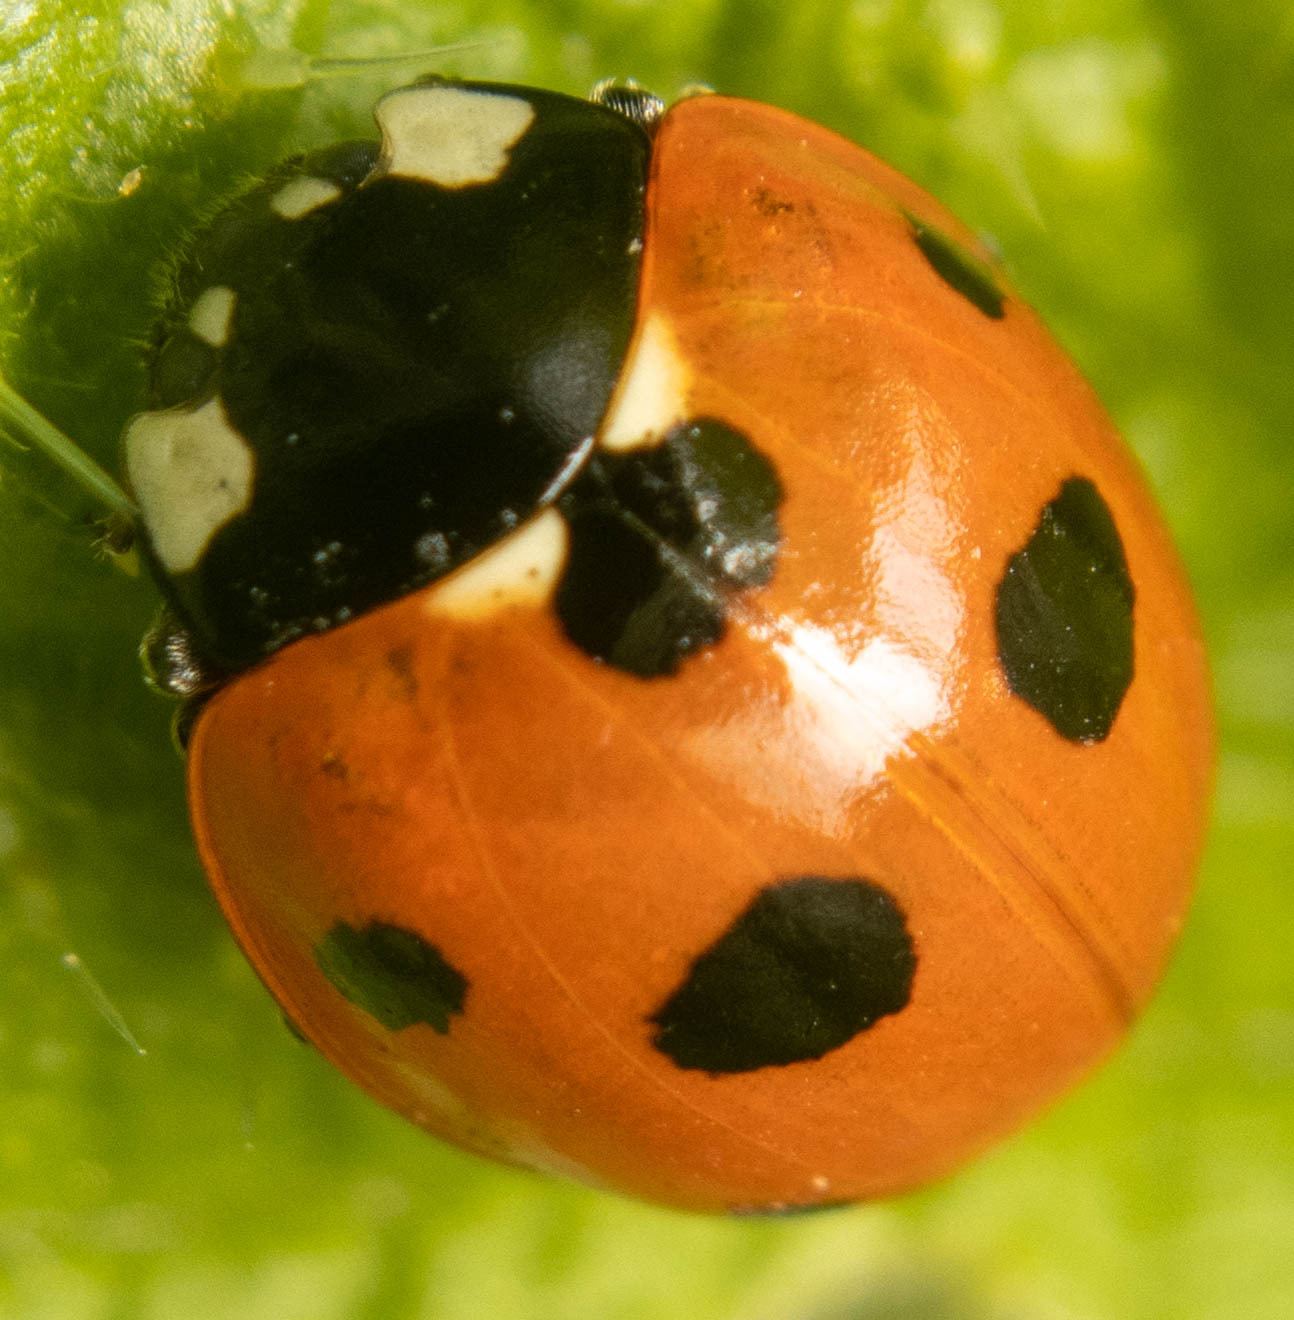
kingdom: Animalia
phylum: Arthropoda
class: Insecta
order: Coleoptera
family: Coccinellidae
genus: Coccinella
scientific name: Coccinella septempunctata
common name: Sevenspotted lady beetle
